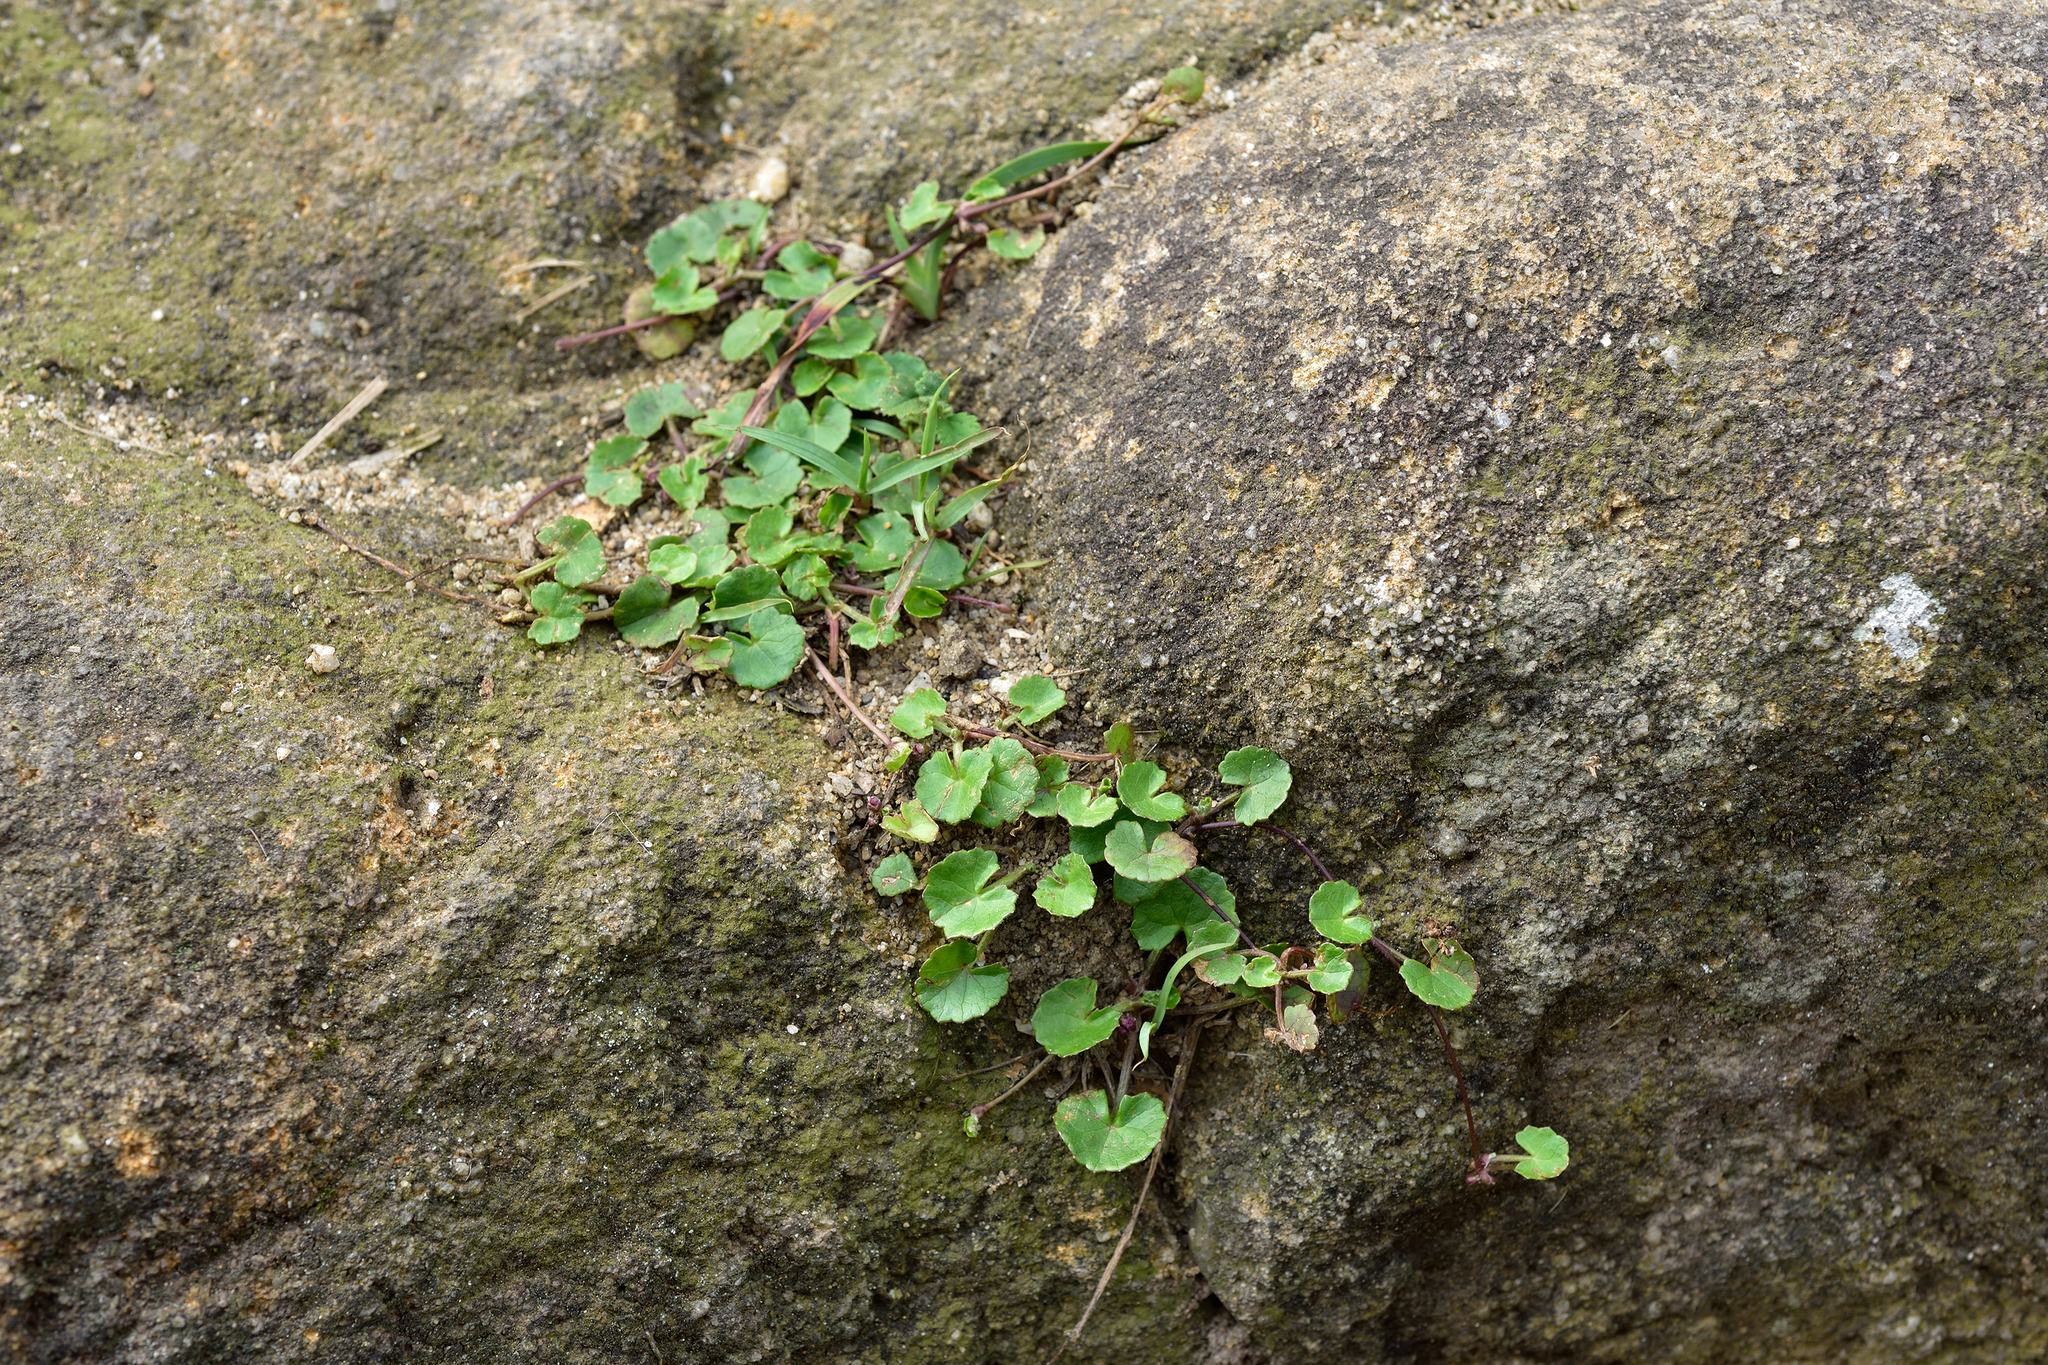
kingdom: Plantae
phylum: Tracheophyta
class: Magnoliopsida
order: Apiales
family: Apiaceae
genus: Centella
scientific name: Centella asiatica
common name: Spadeleaf
